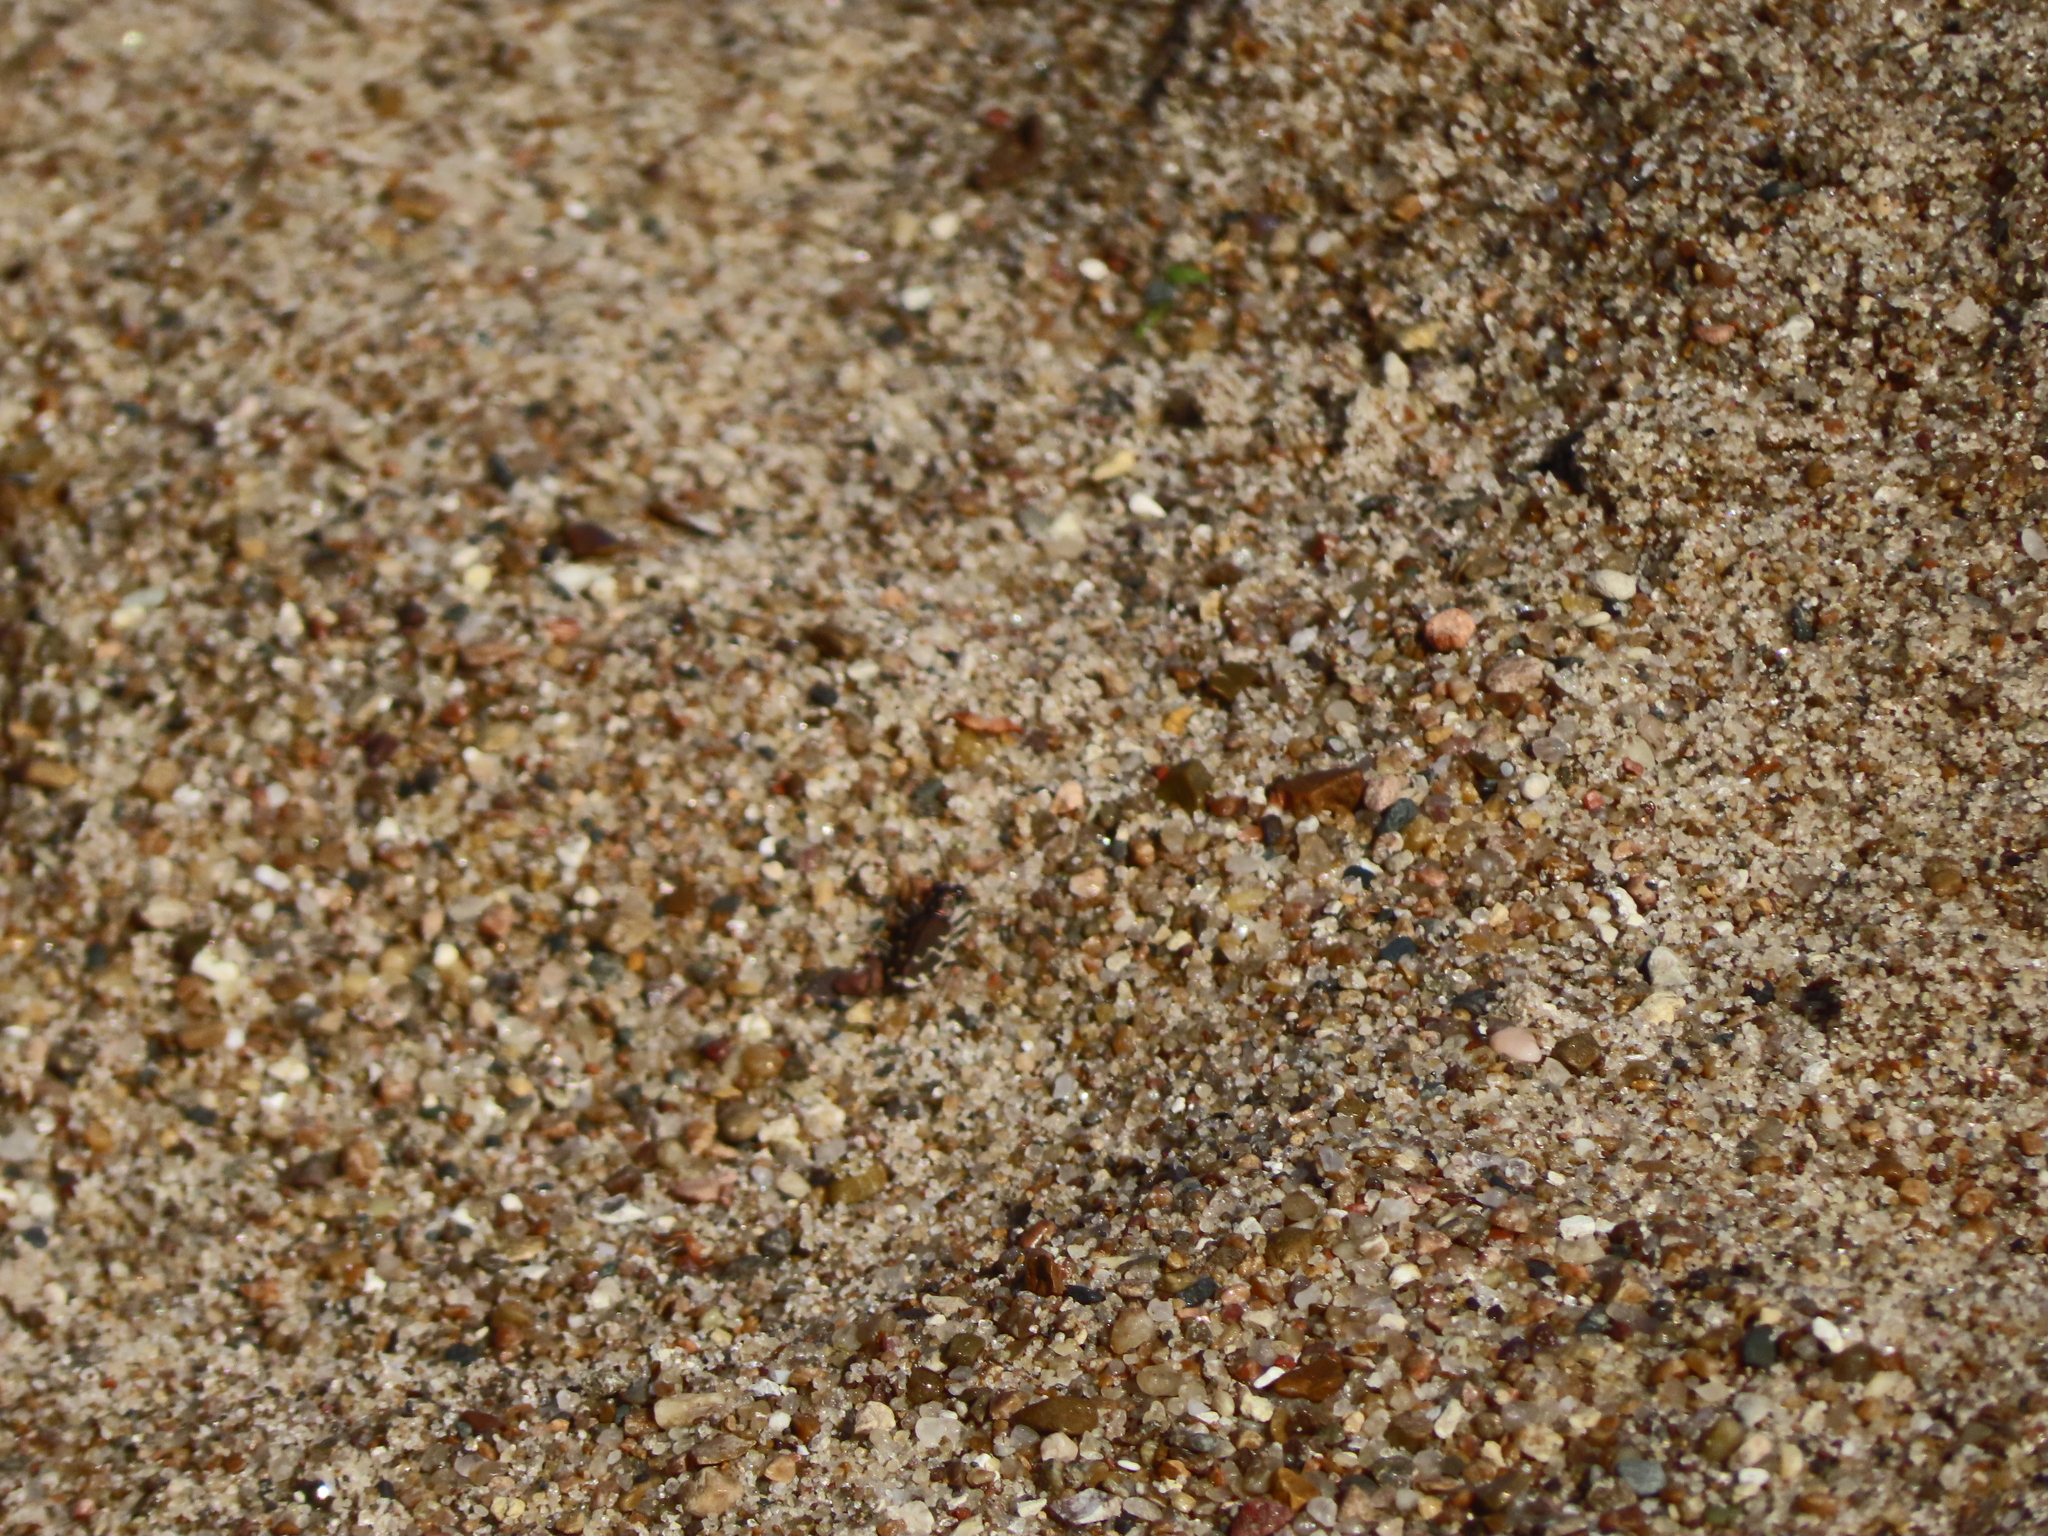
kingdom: Animalia
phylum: Arthropoda
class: Insecta
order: Coleoptera
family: Carabidae
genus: Cicindela
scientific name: Cicindela repanda
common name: Bronzed tiger beetle
